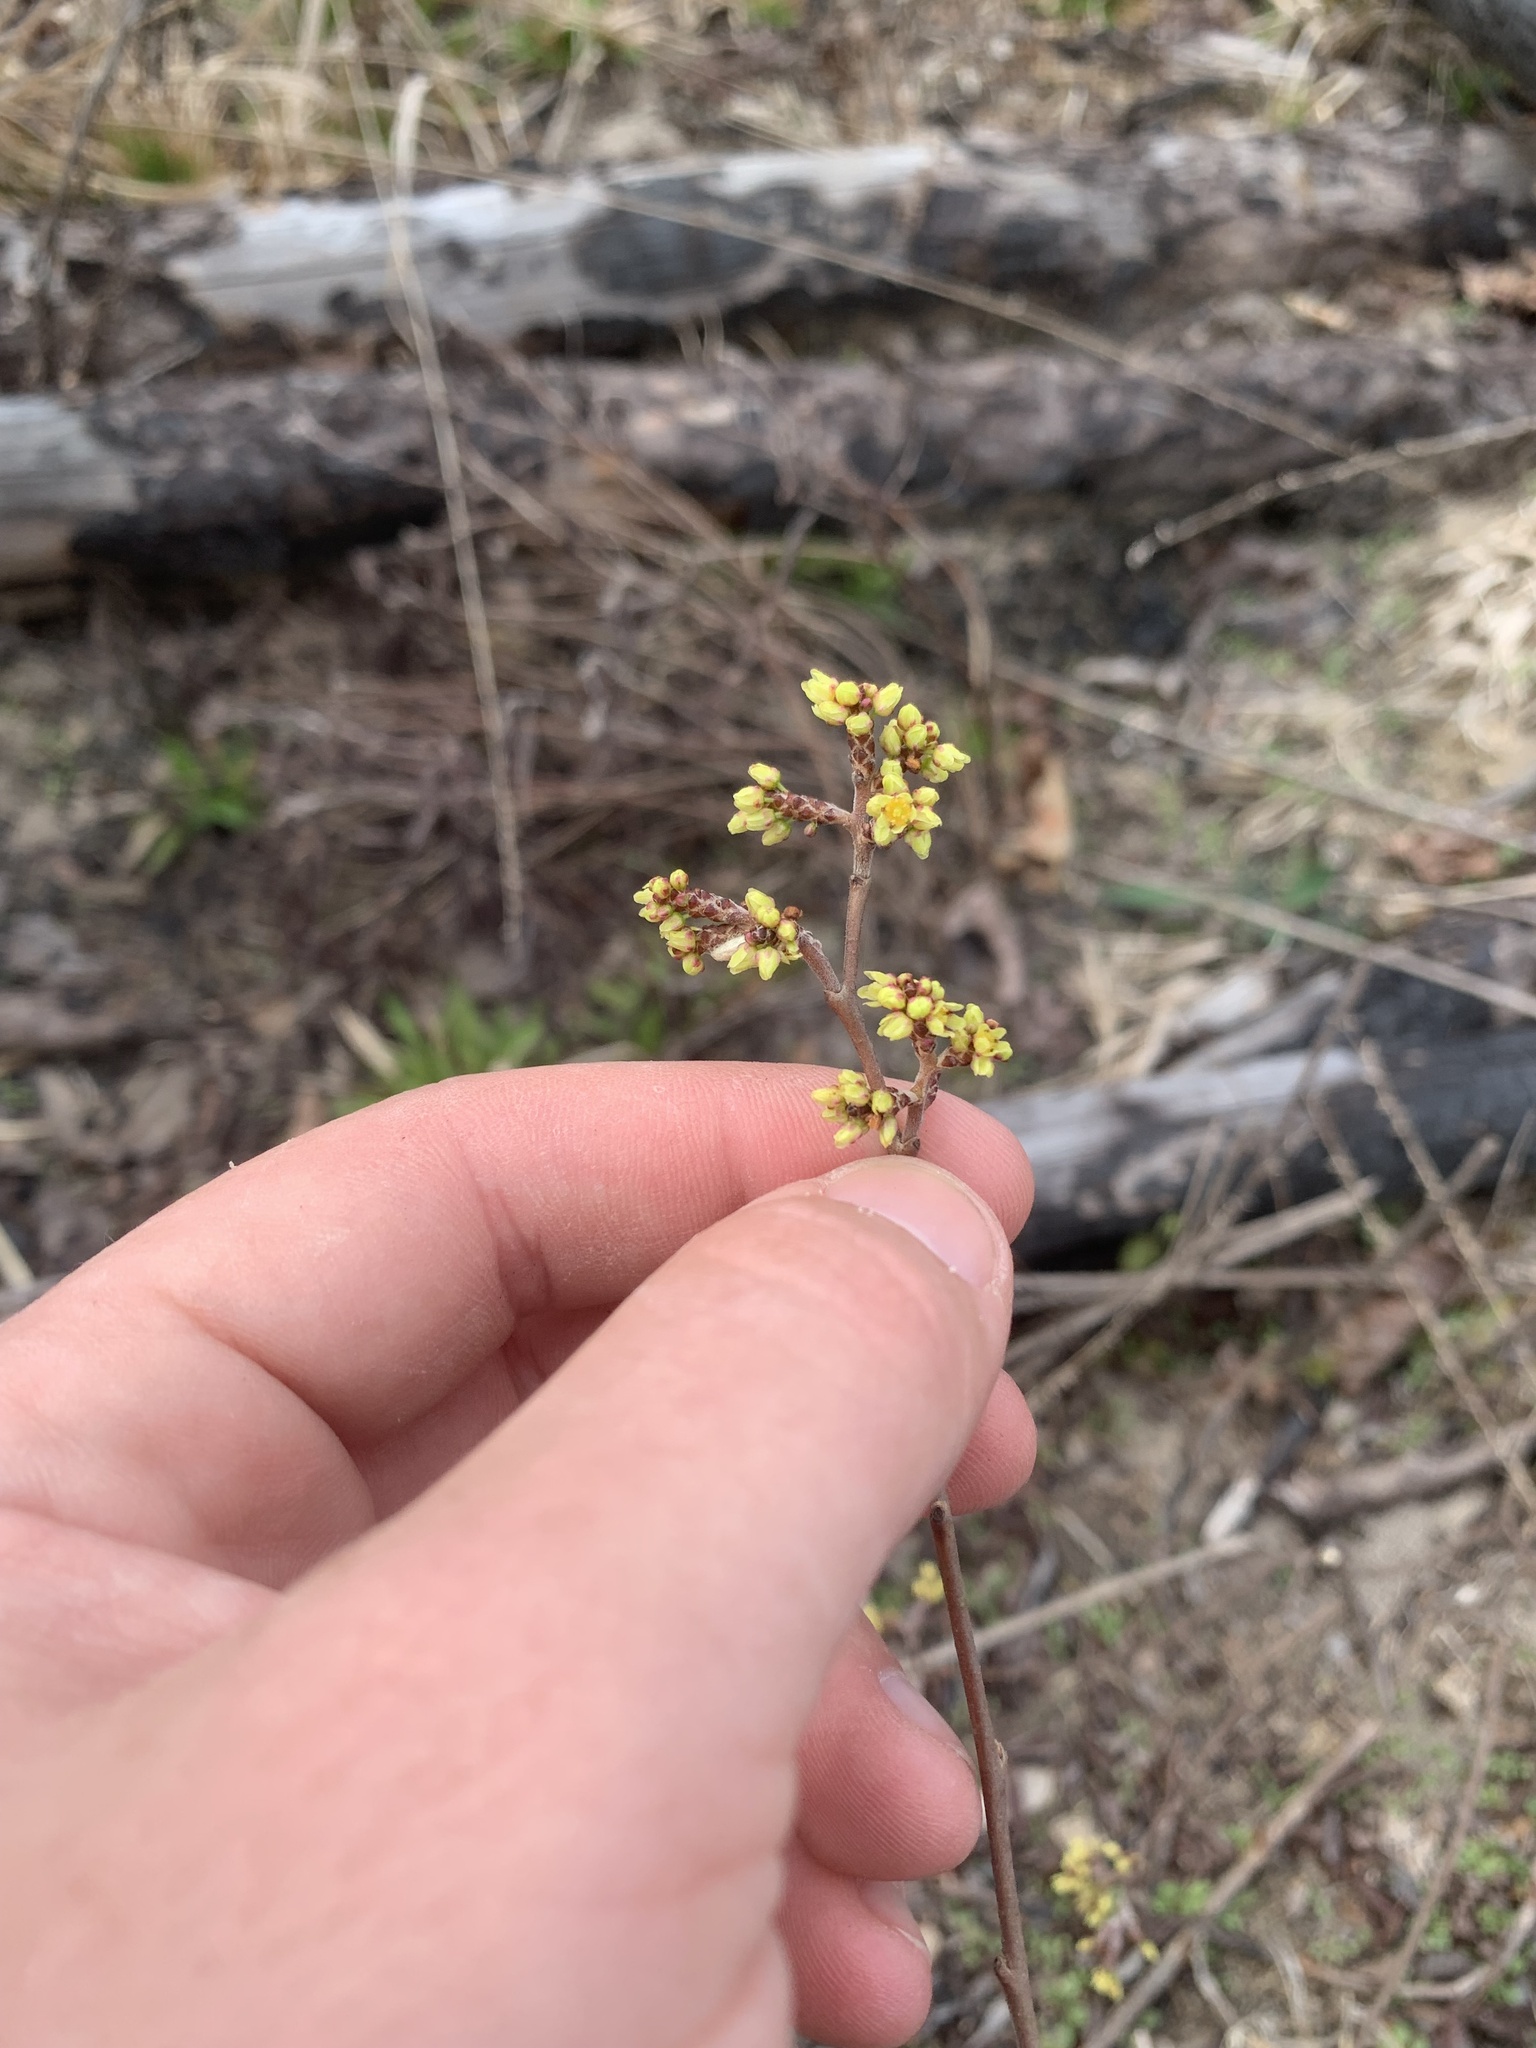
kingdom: Plantae
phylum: Tracheophyta
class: Magnoliopsida
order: Sapindales
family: Anacardiaceae
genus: Rhus
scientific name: Rhus aromatica
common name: Aromatic sumac
